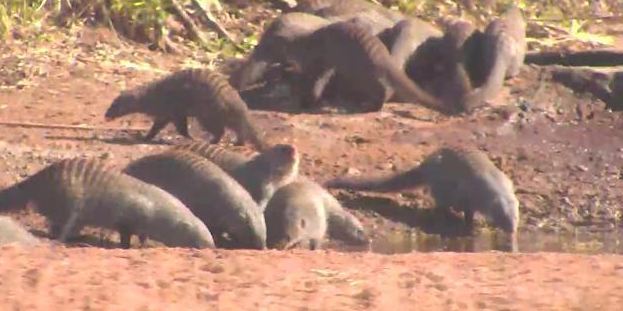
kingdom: Animalia
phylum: Chordata
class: Mammalia
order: Carnivora
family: Herpestidae
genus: Mungos
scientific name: Mungos mungo
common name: Banded mongoose
